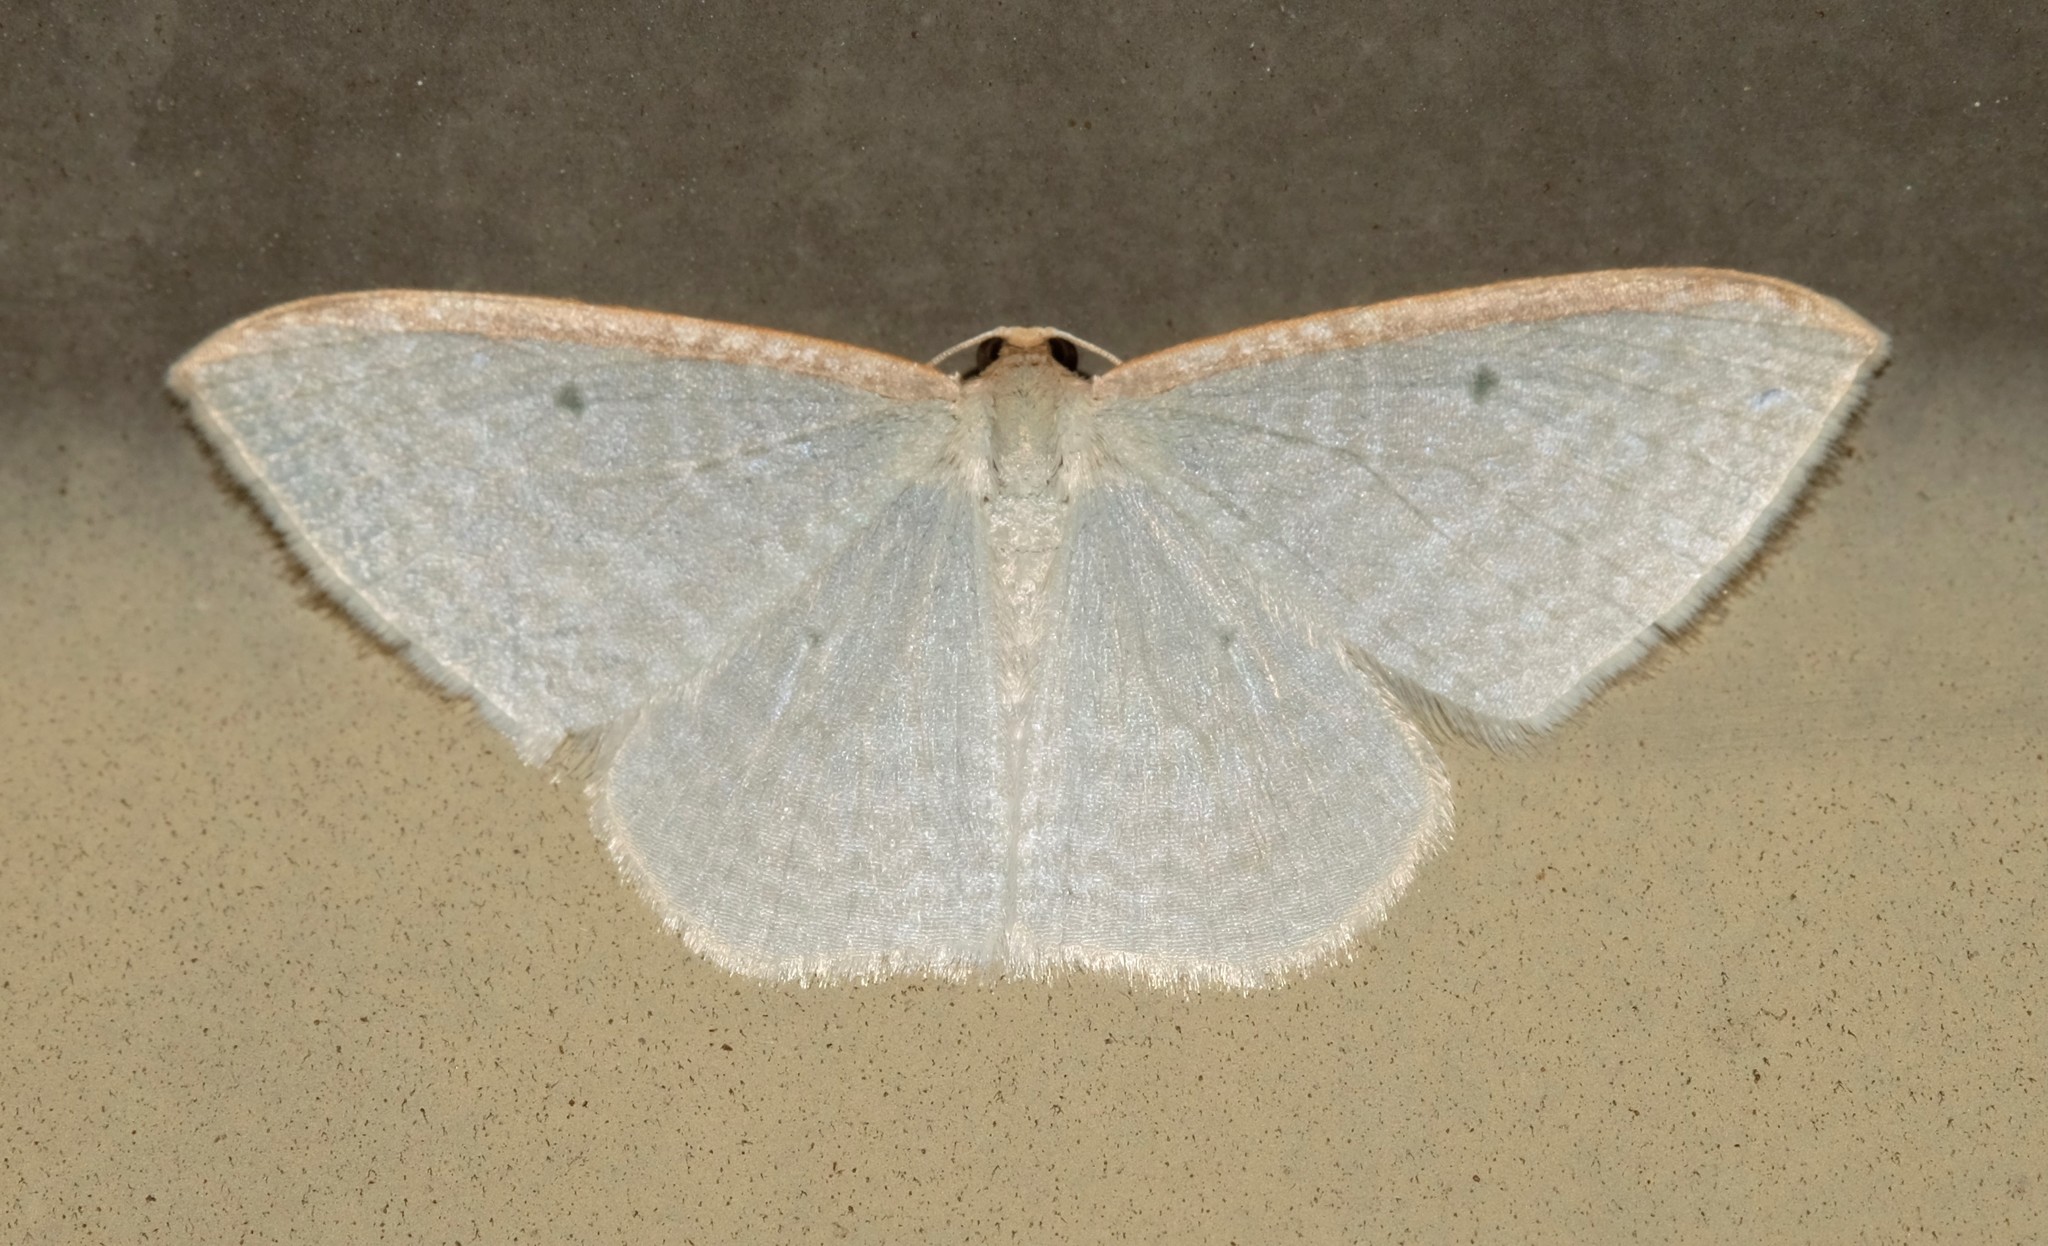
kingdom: Animalia
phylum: Arthropoda
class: Insecta
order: Lepidoptera
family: Geometridae
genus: Poecilasthena
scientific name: Poecilasthena pulchraria
